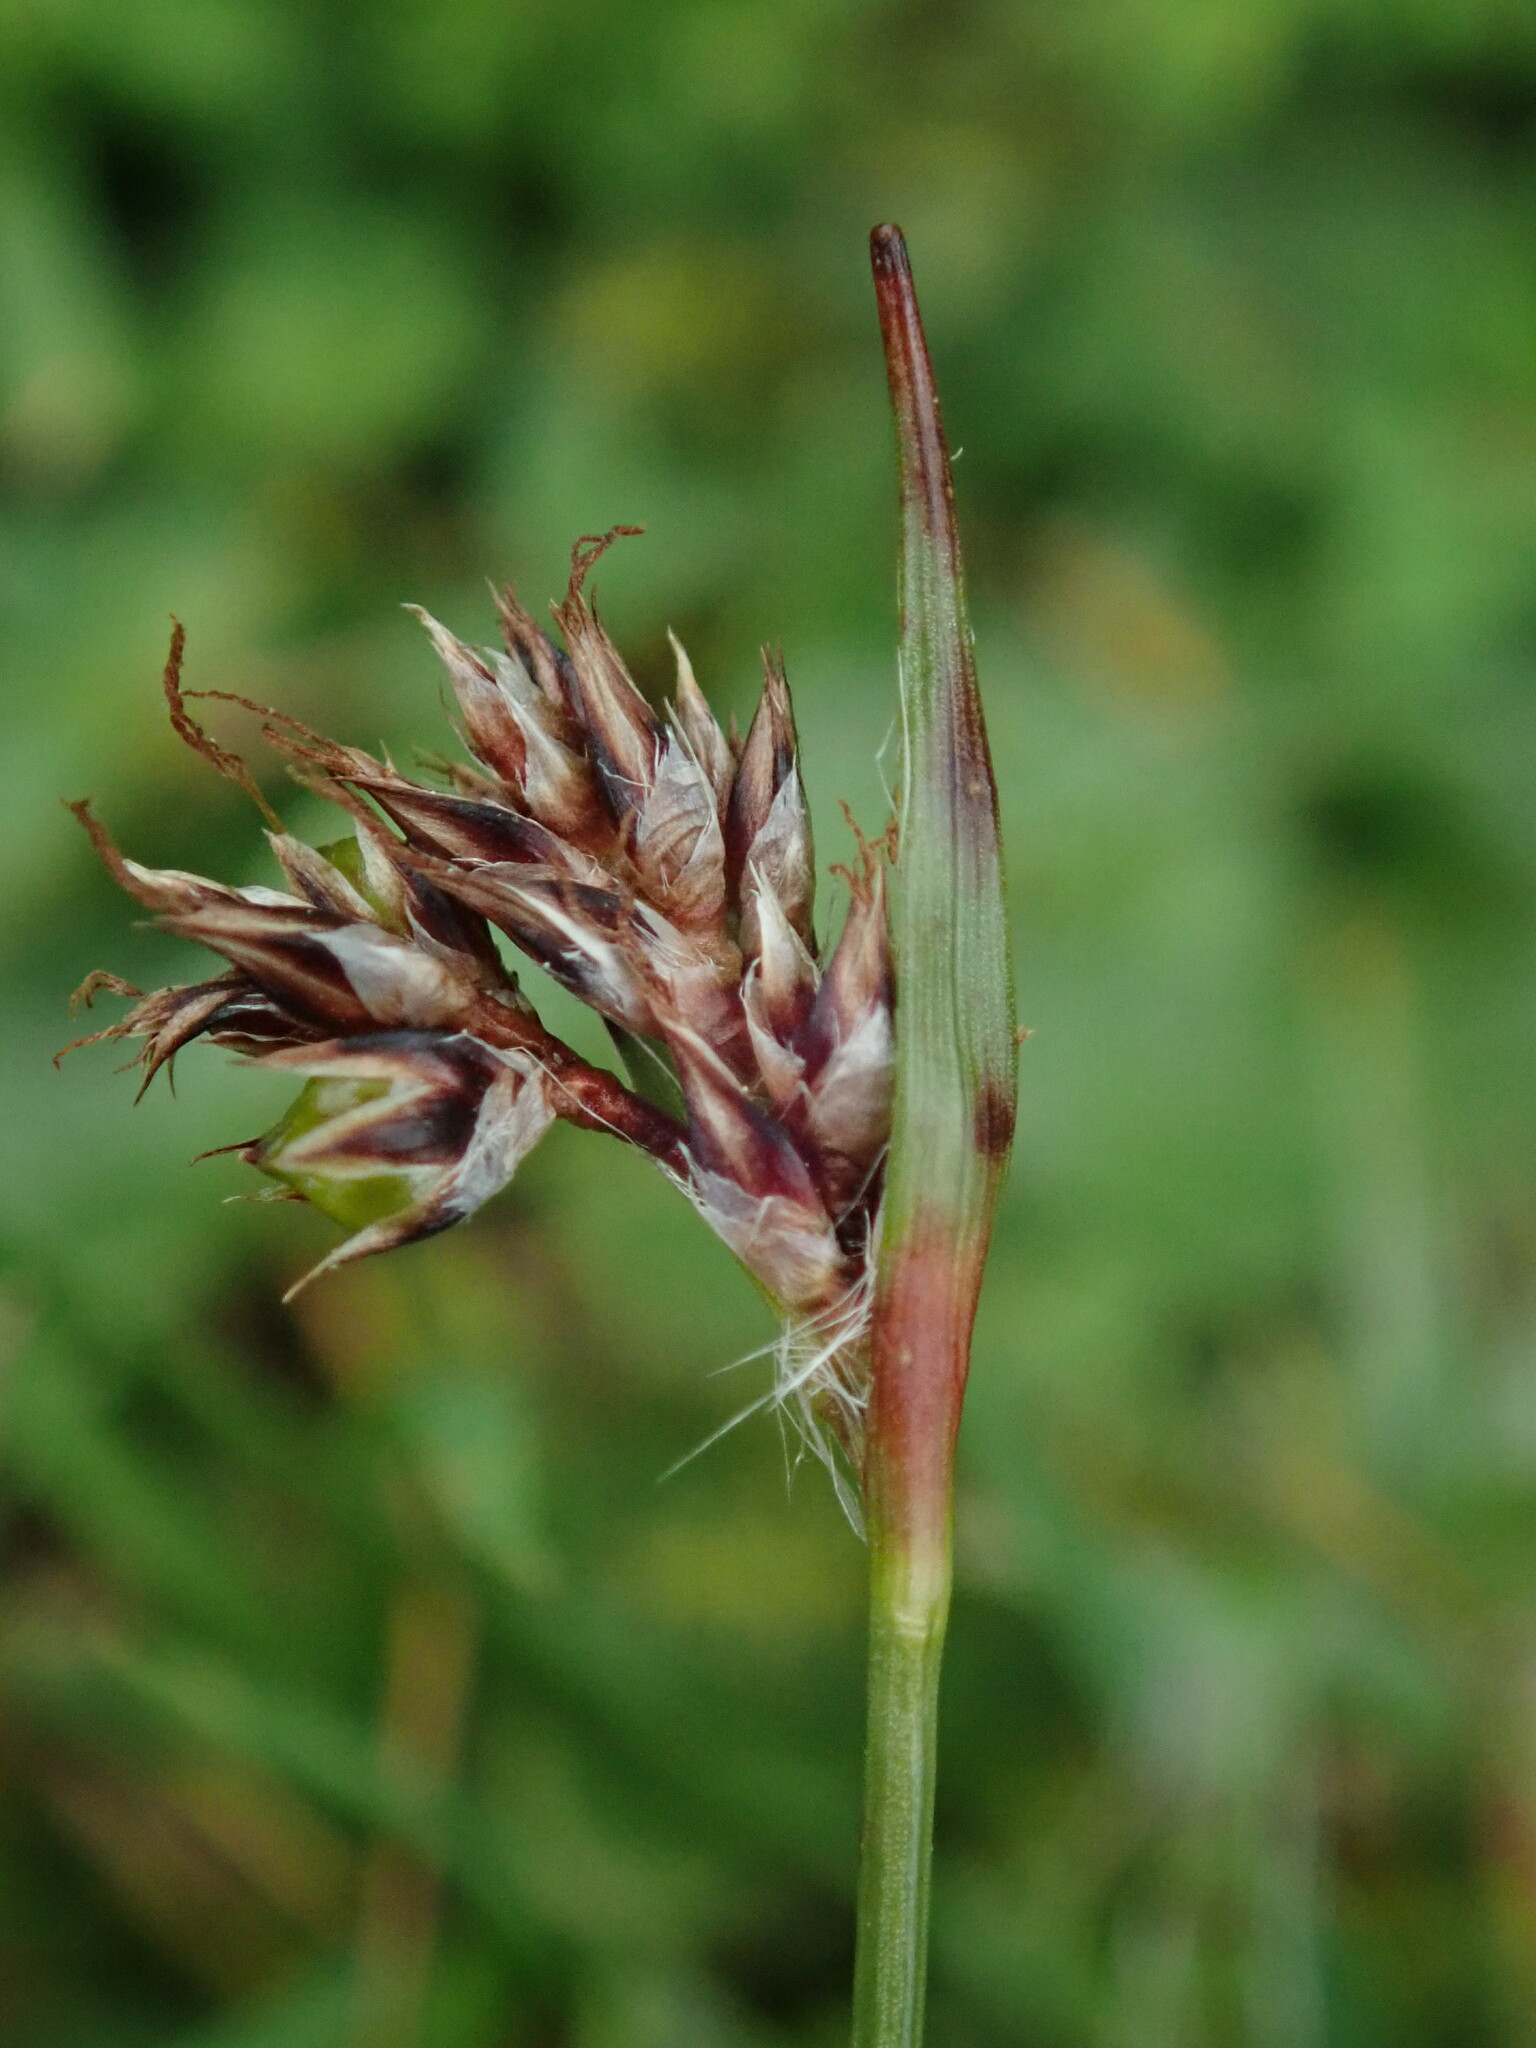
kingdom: Plantae
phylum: Tracheophyta
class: Liliopsida
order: Poales
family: Juncaceae
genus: Luzula
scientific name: Luzula campestris
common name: Field wood-rush
